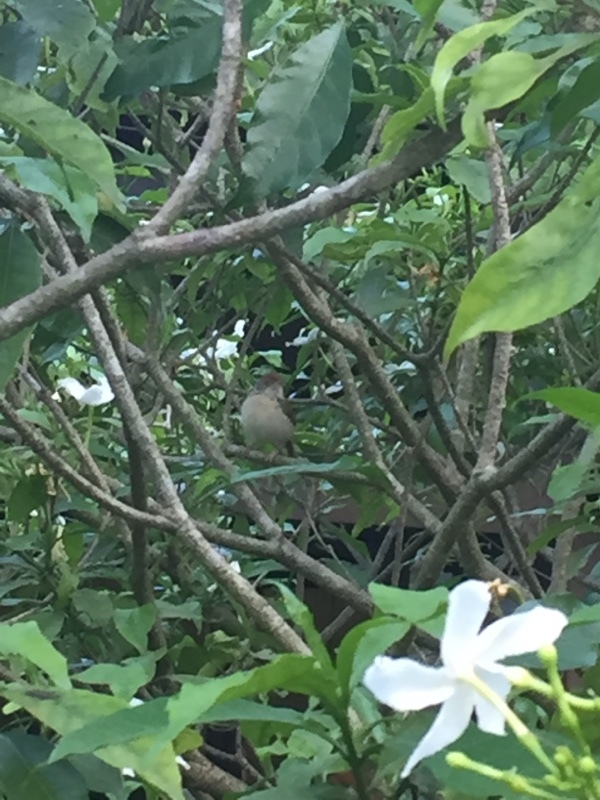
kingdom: Animalia
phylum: Chordata
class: Aves
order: Passeriformes
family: Cisticolidae
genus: Orthotomus
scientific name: Orthotomus sutorius
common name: Common tailorbird
